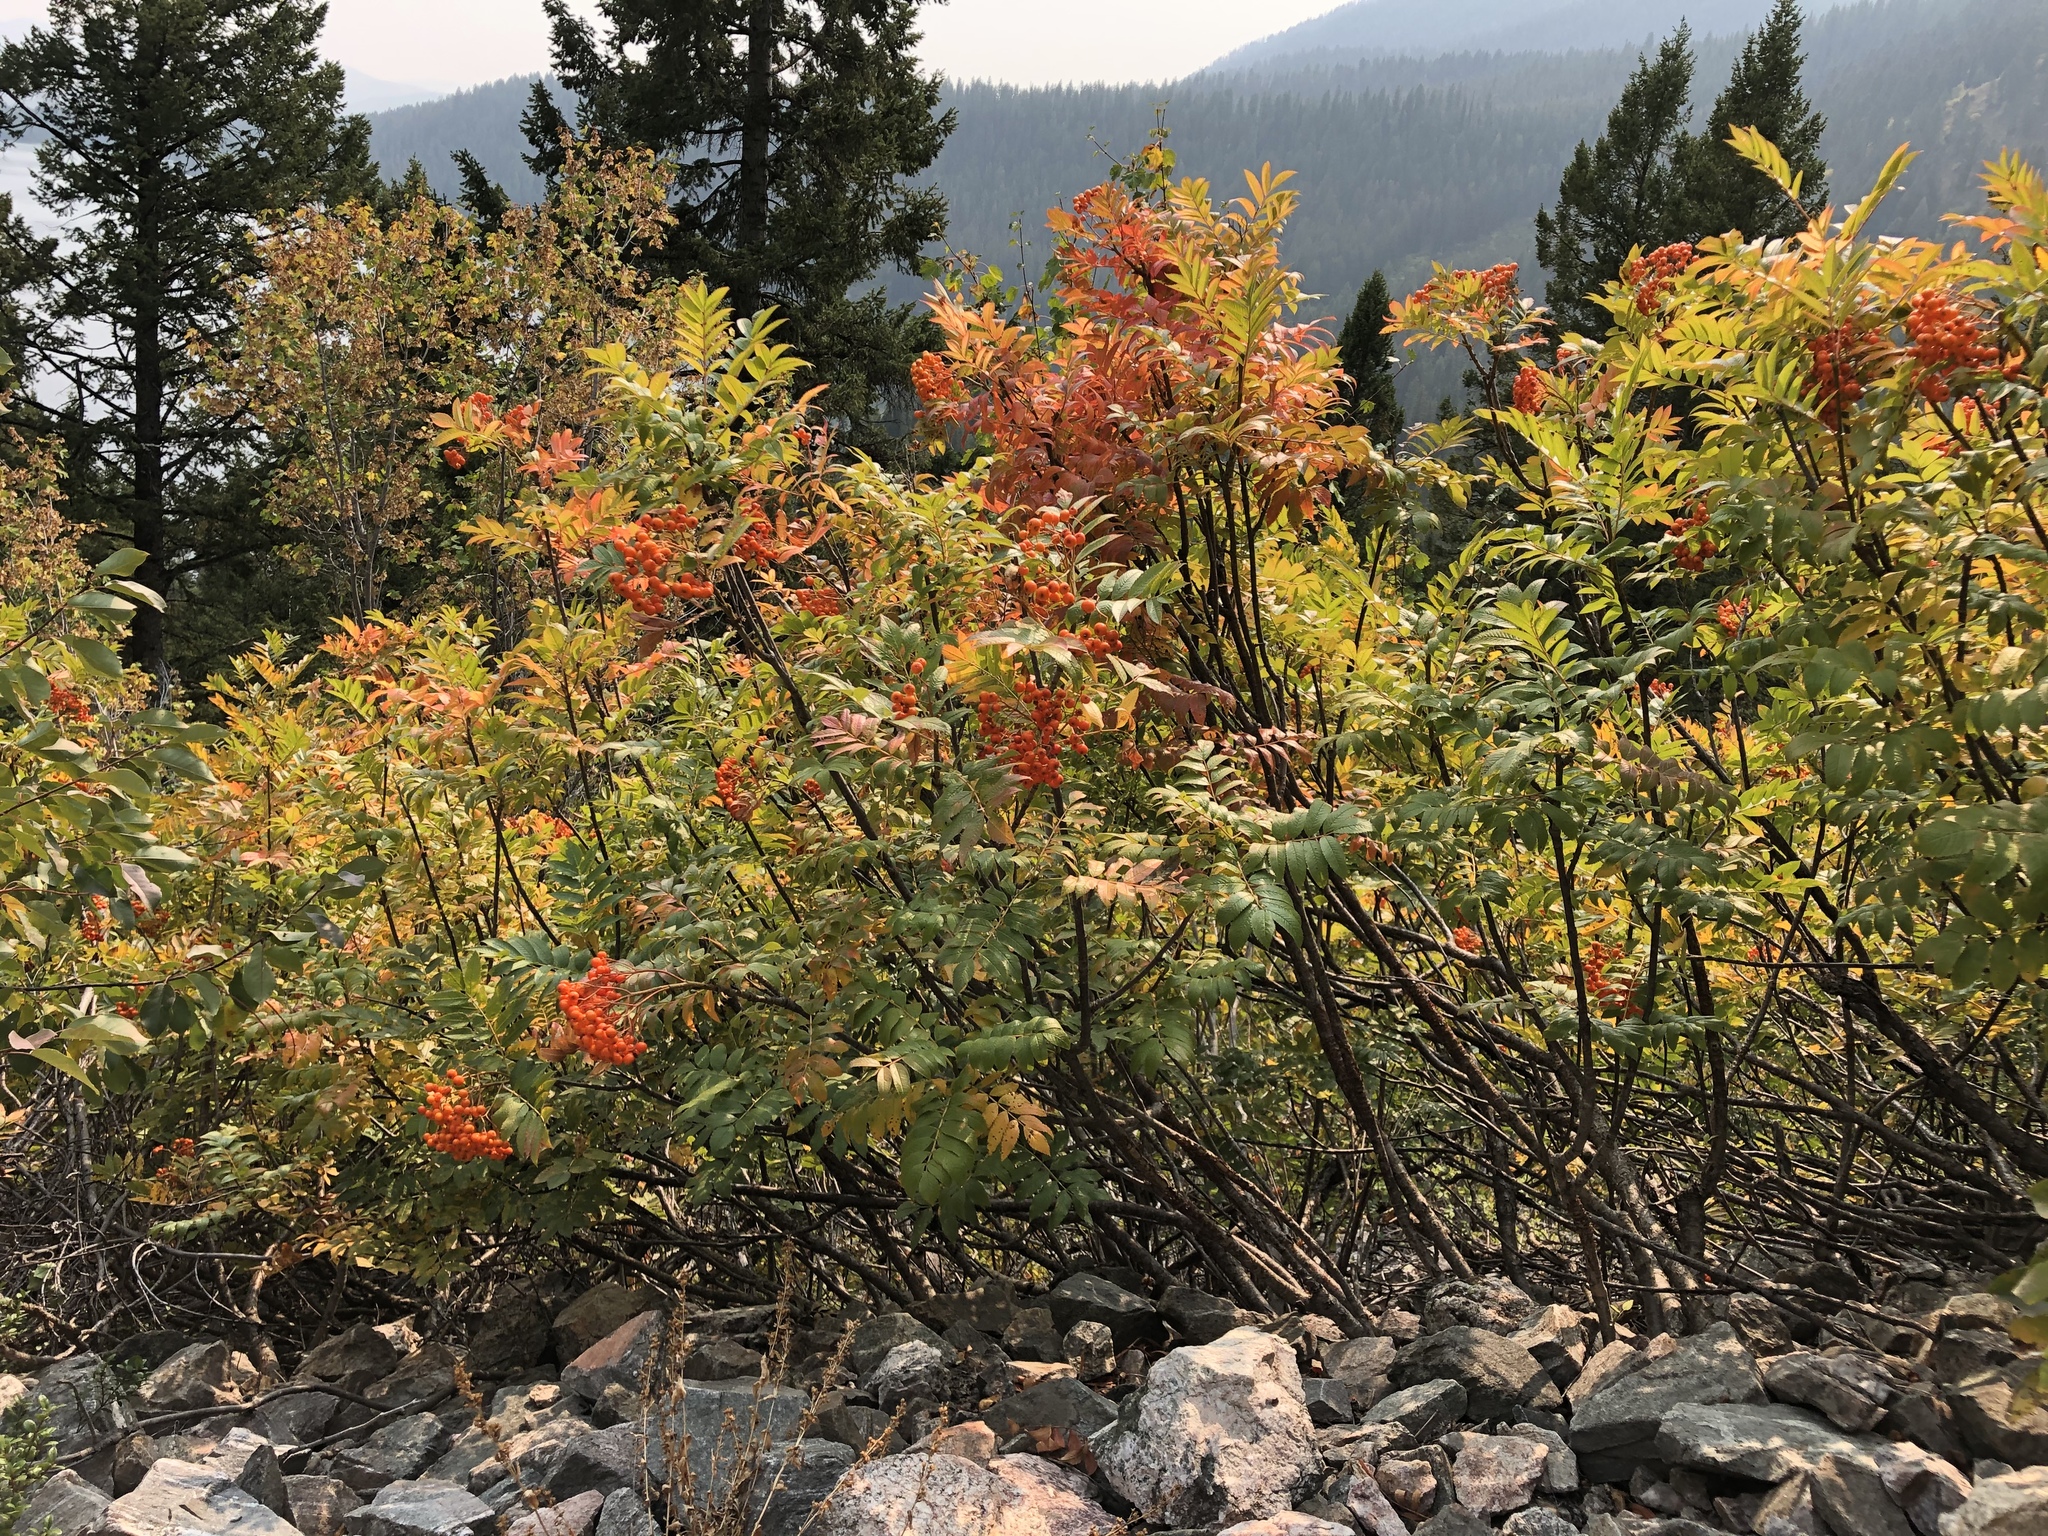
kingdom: Plantae
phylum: Tracheophyta
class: Magnoliopsida
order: Rosales
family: Rosaceae
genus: Sorbus
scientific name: Sorbus aucuparia
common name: Rowan
